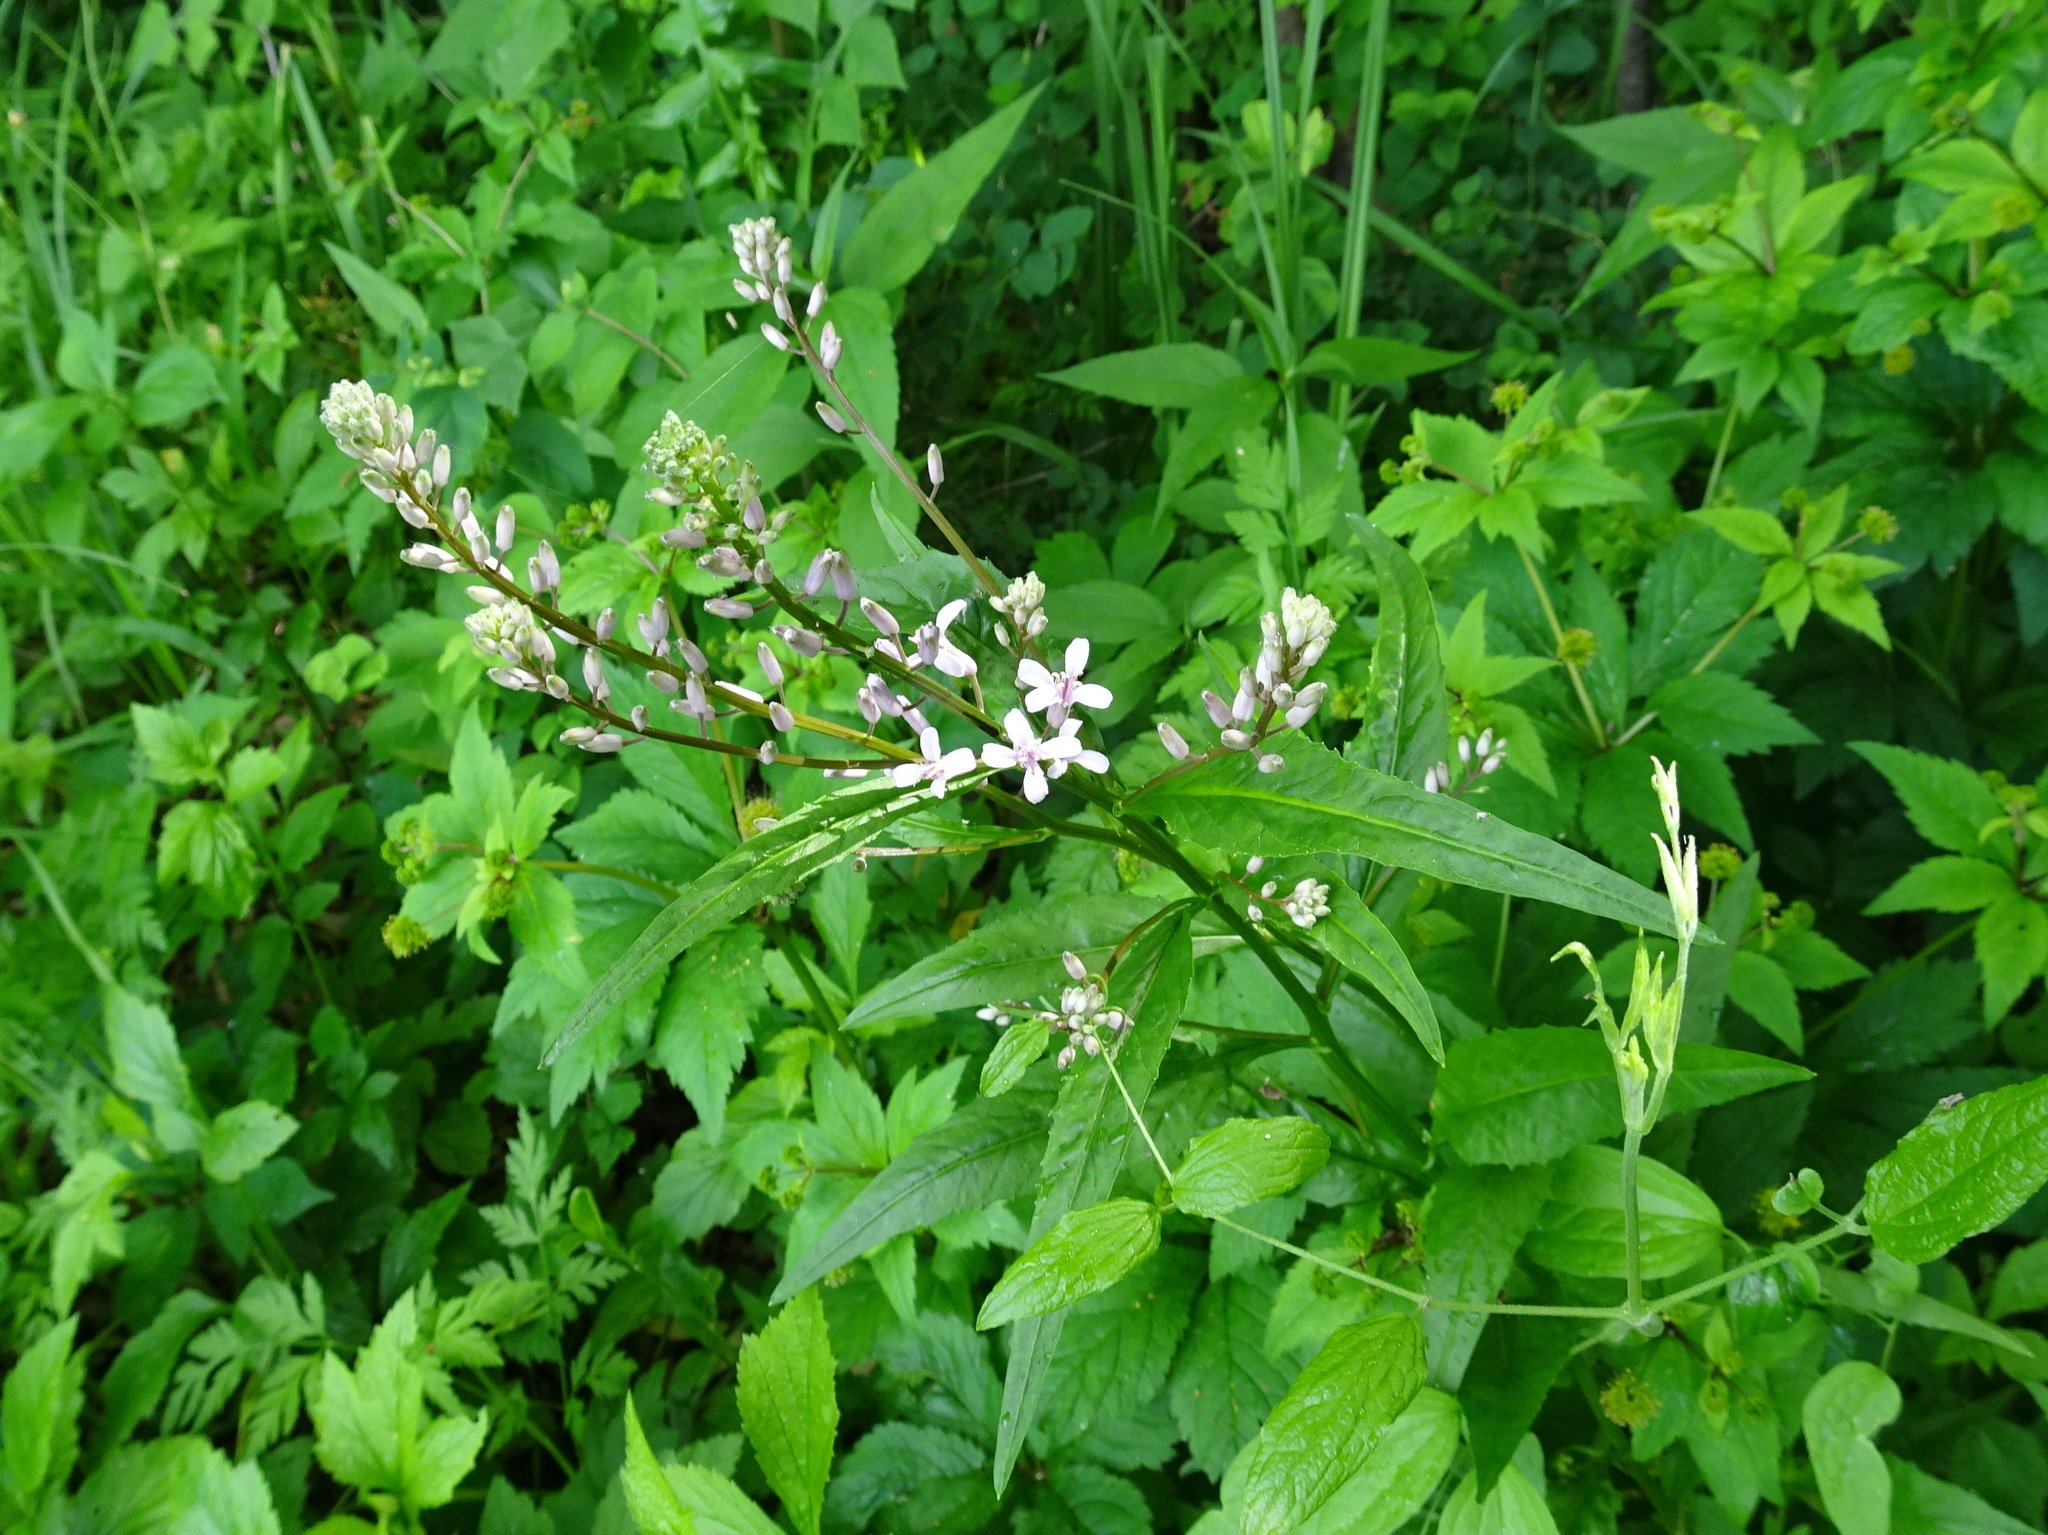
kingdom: Plantae
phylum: Tracheophyta
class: Magnoliopsida
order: Brassicales
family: Brassicaceae
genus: Iodanthus
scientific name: Iodanthus pinnatifidus
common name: Violet rocket
